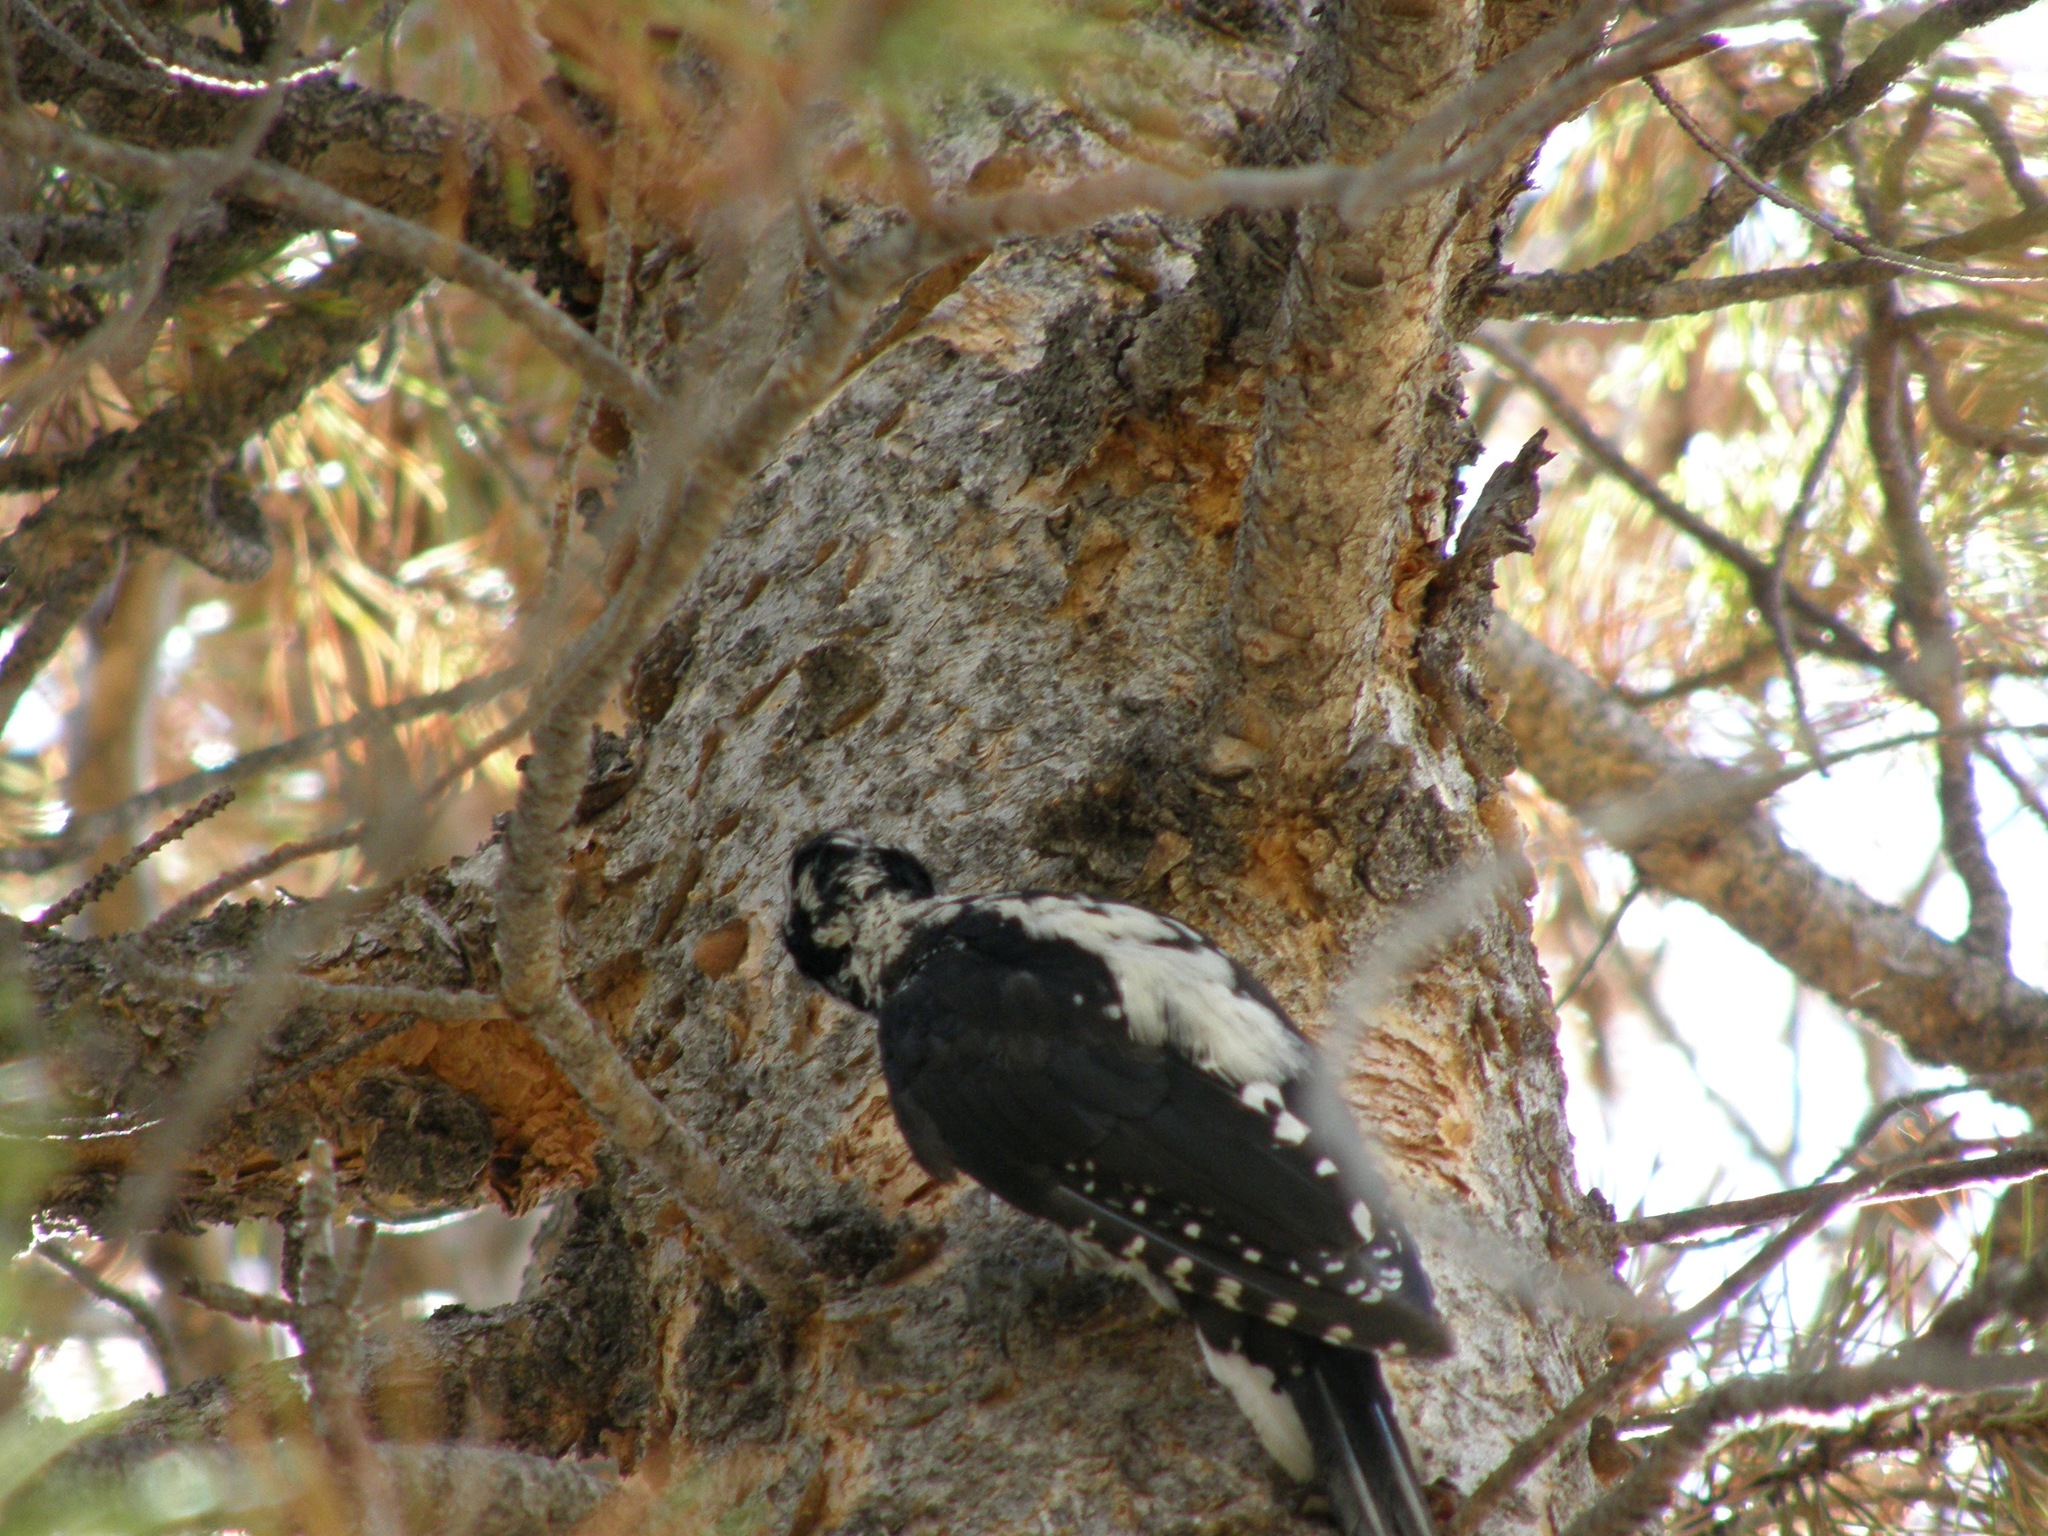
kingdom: Animalia
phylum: Chordata
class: Aves
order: Piciformes
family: Picidae
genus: Leuconotopicus
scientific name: Leuconotopicus villosus
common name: Hairy woodpecker
